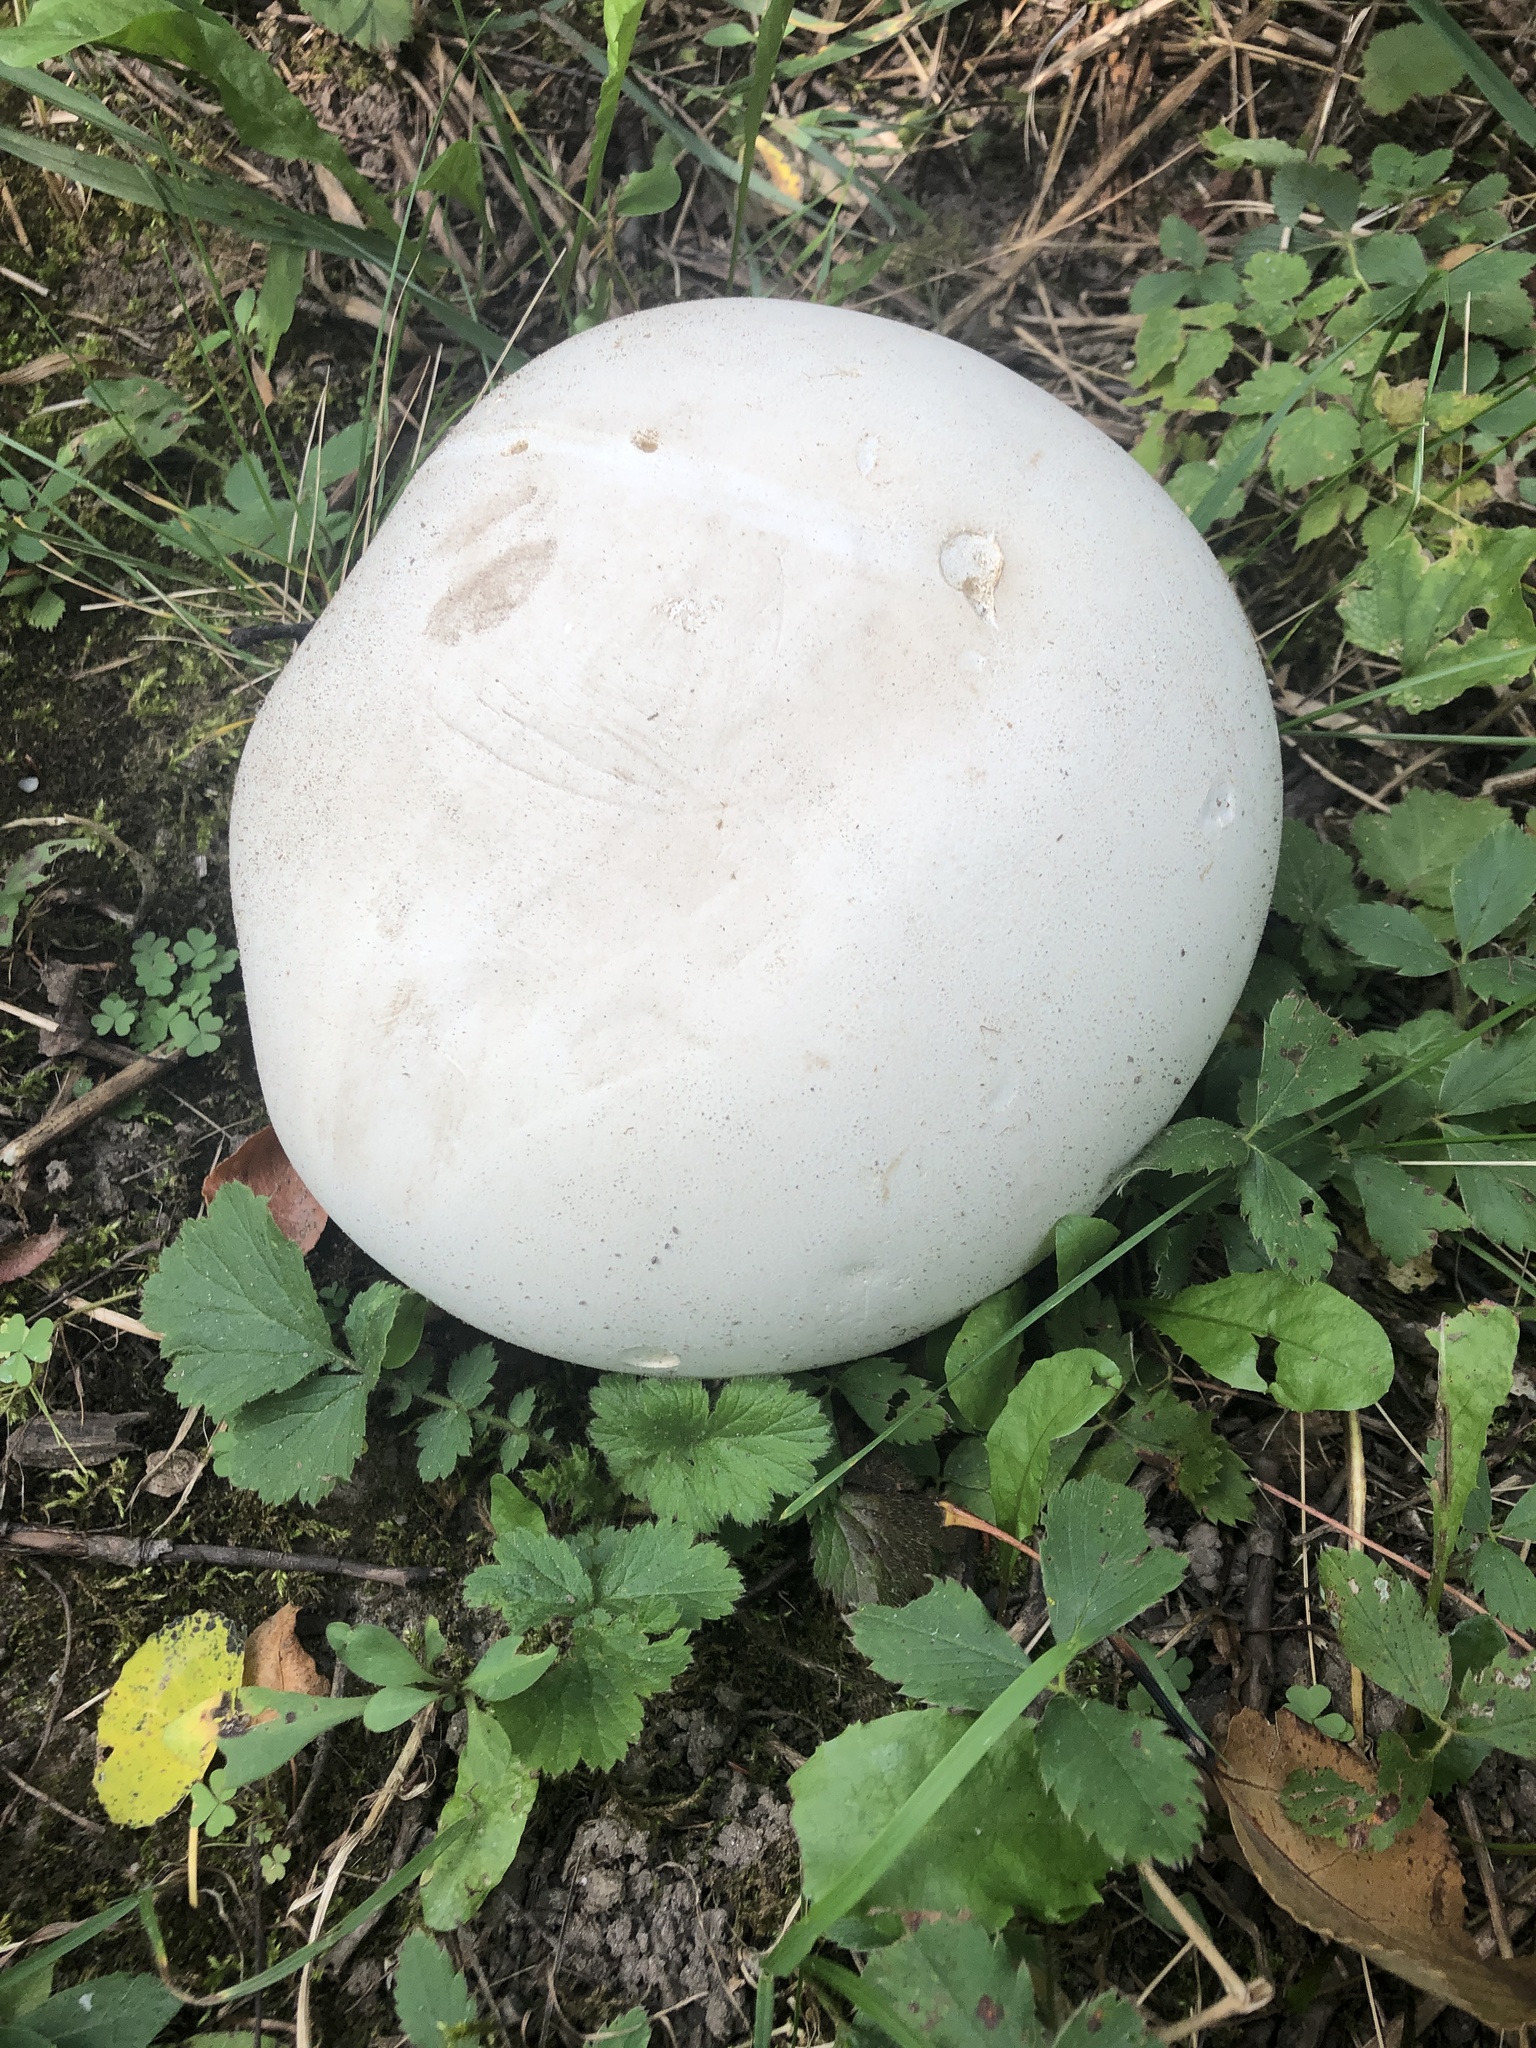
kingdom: Fungi
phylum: Basidiomycota
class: Agaricomycetes
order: Agaricales
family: Lycoperdaceae
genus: Calvatia
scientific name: Calvatia gigantea
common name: Giant puffball
